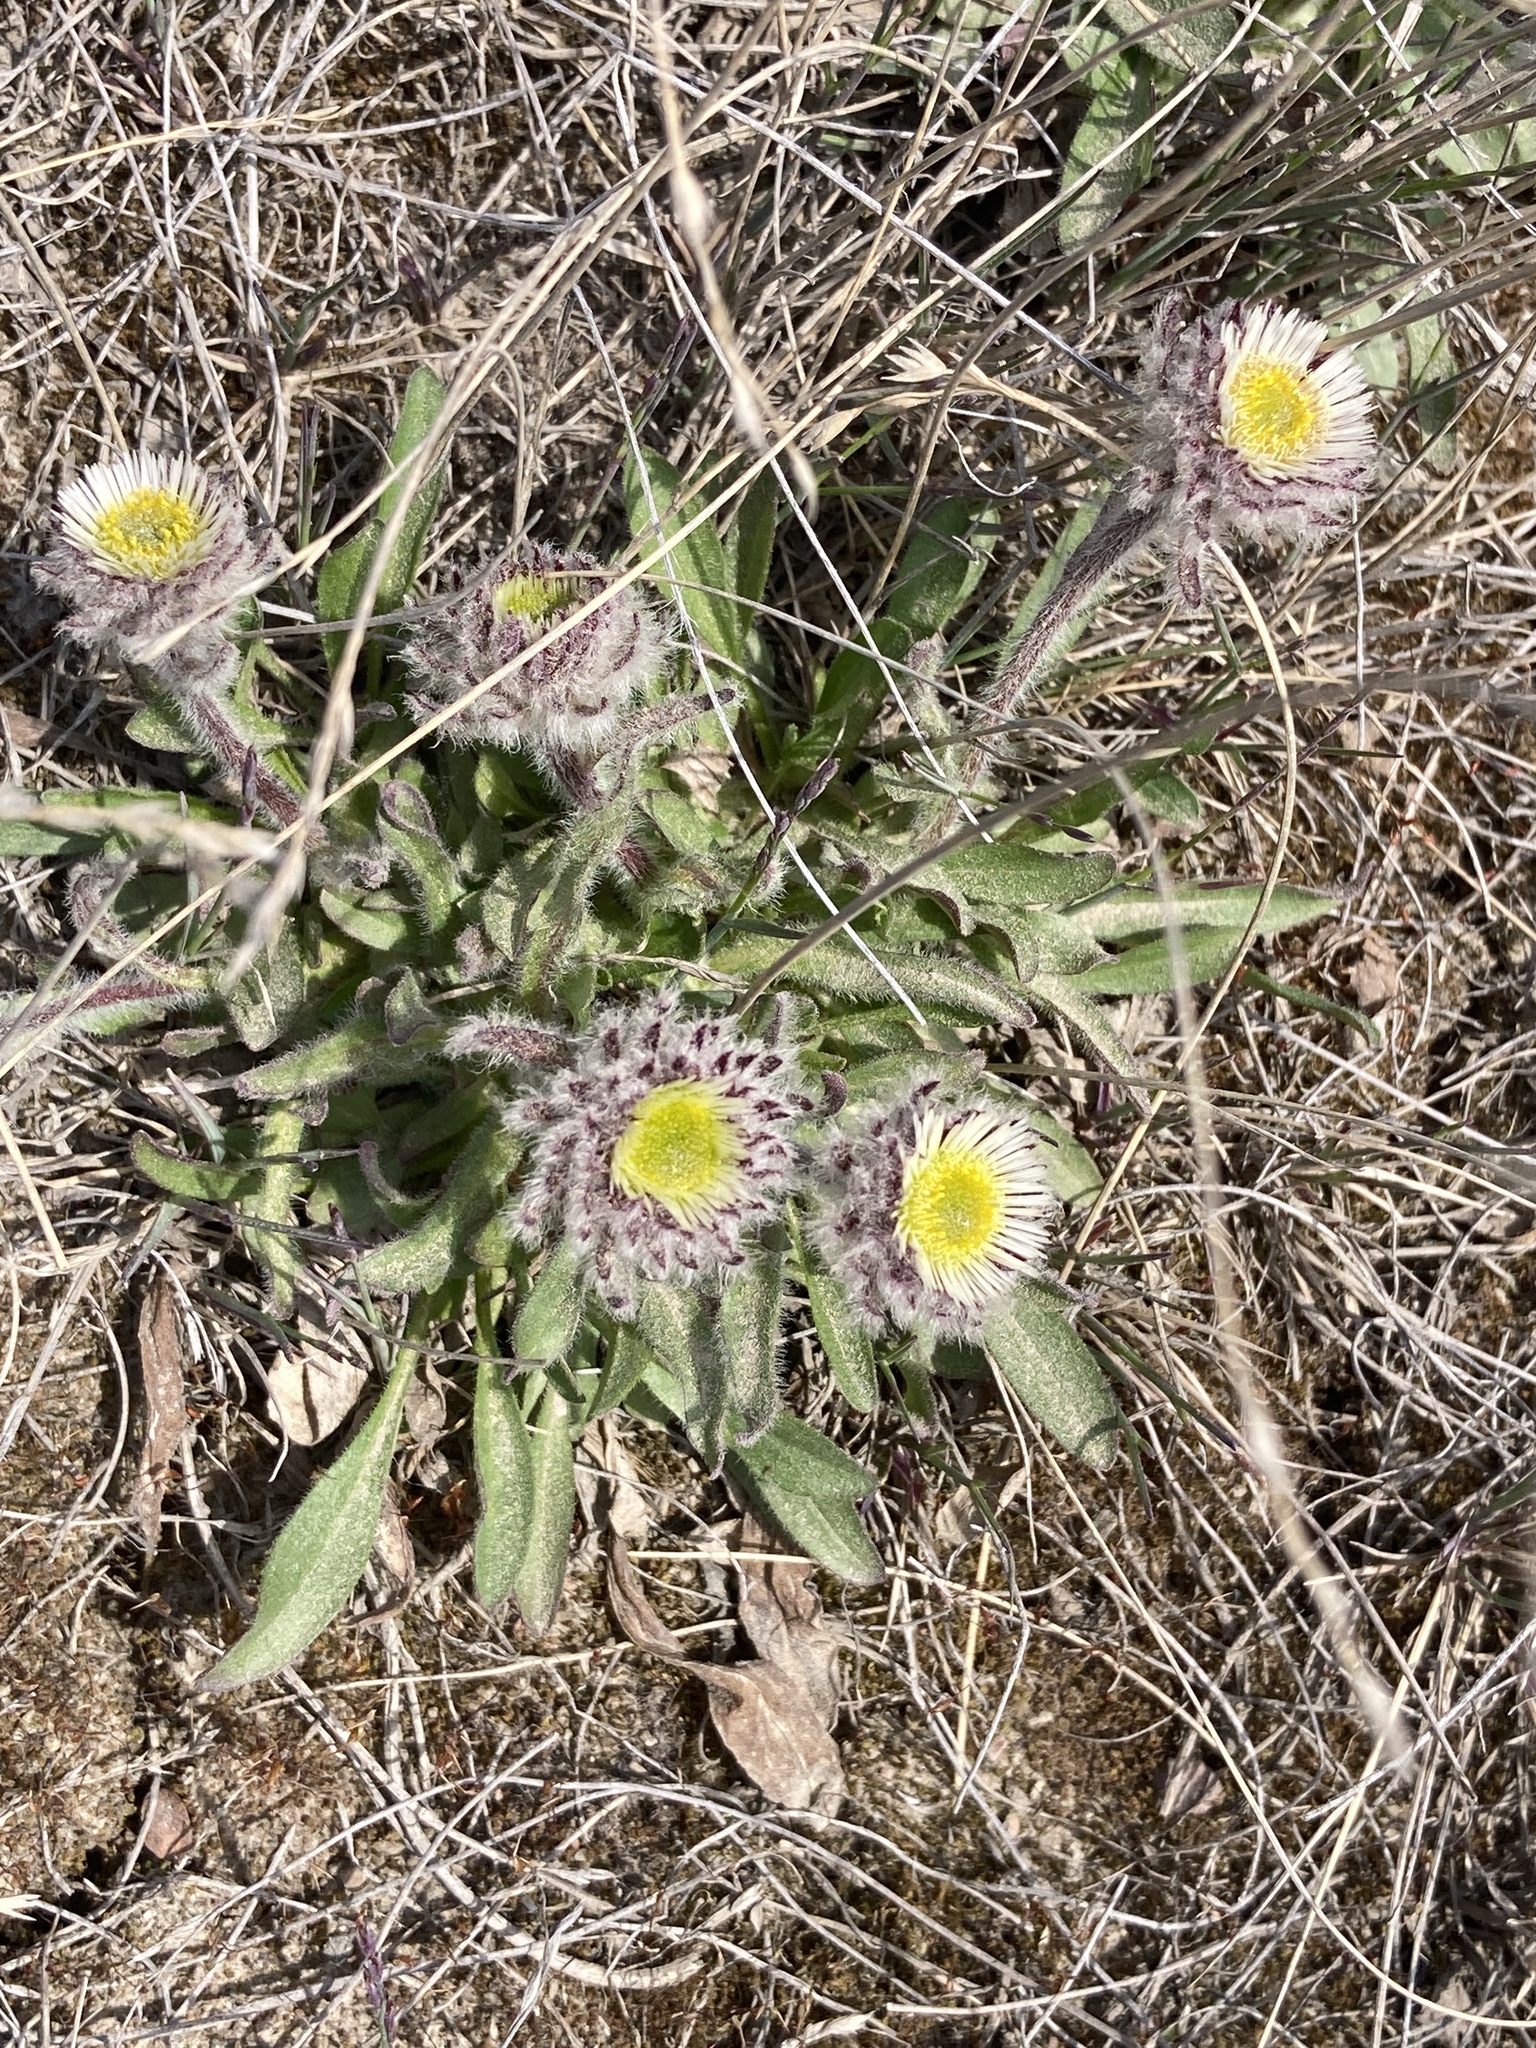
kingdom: Plantae
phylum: Tracheophyta
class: Magnoliopsida
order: Asterales
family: Asteraceae
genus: Erigeron
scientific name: Erigeron uniflorus
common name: Northern daisy
